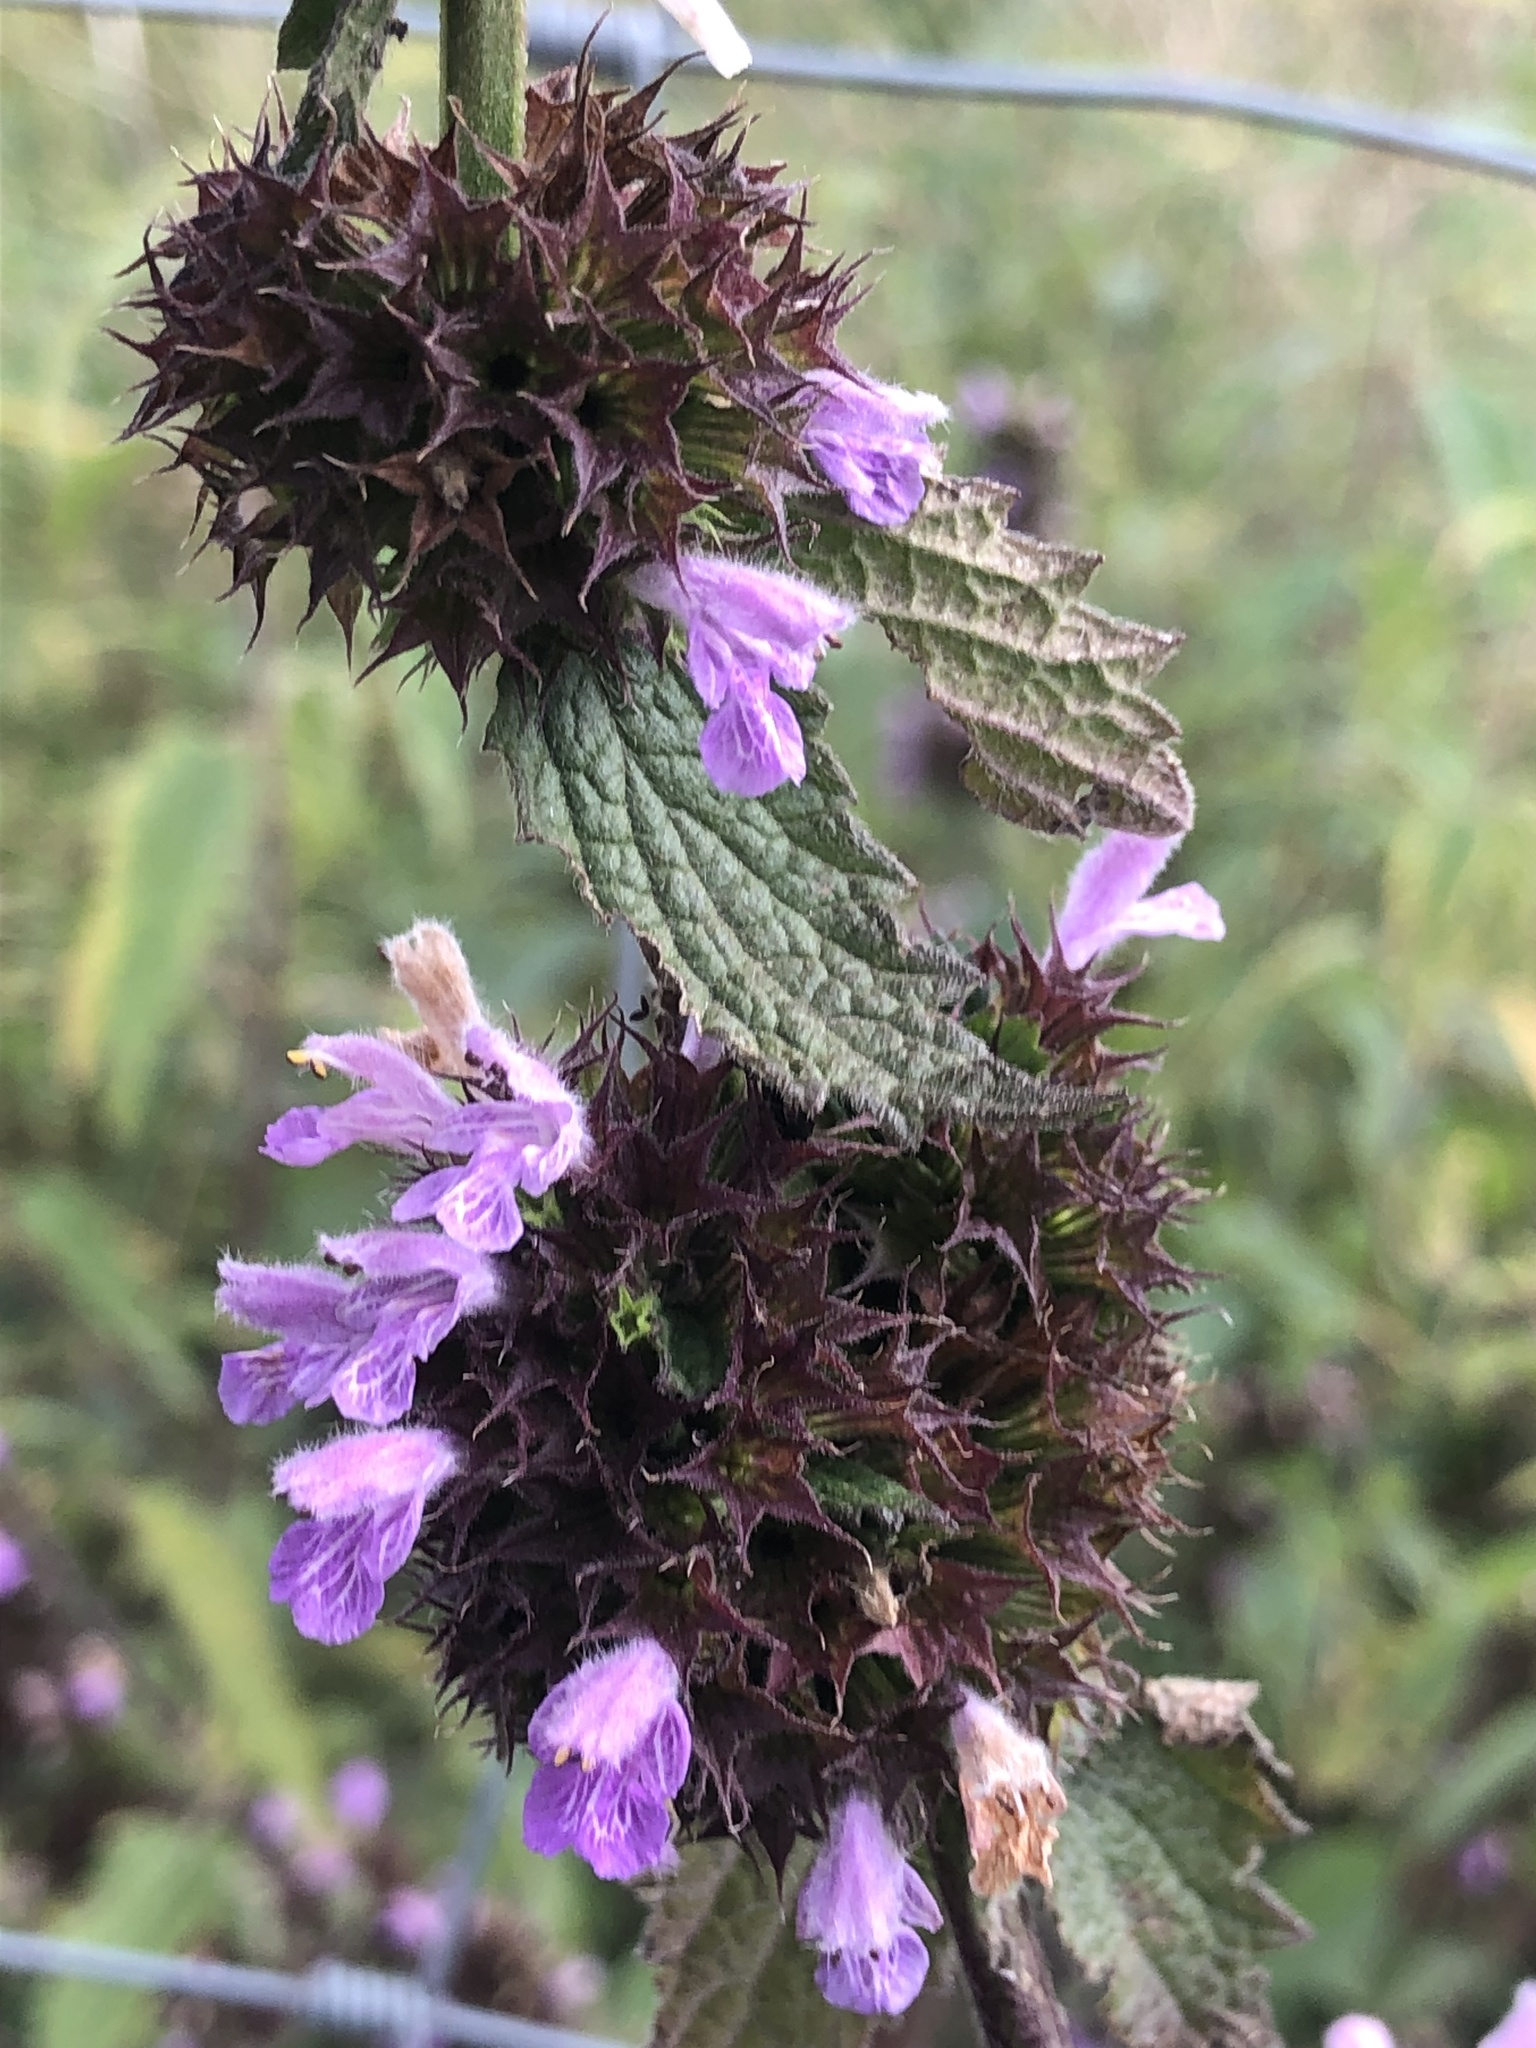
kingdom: Plantae
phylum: Tracheophyta
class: Magnoliopsida
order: Lamiales
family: Lamiaceae
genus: Ballota
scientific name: Ballota nigra
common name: Black horehound
